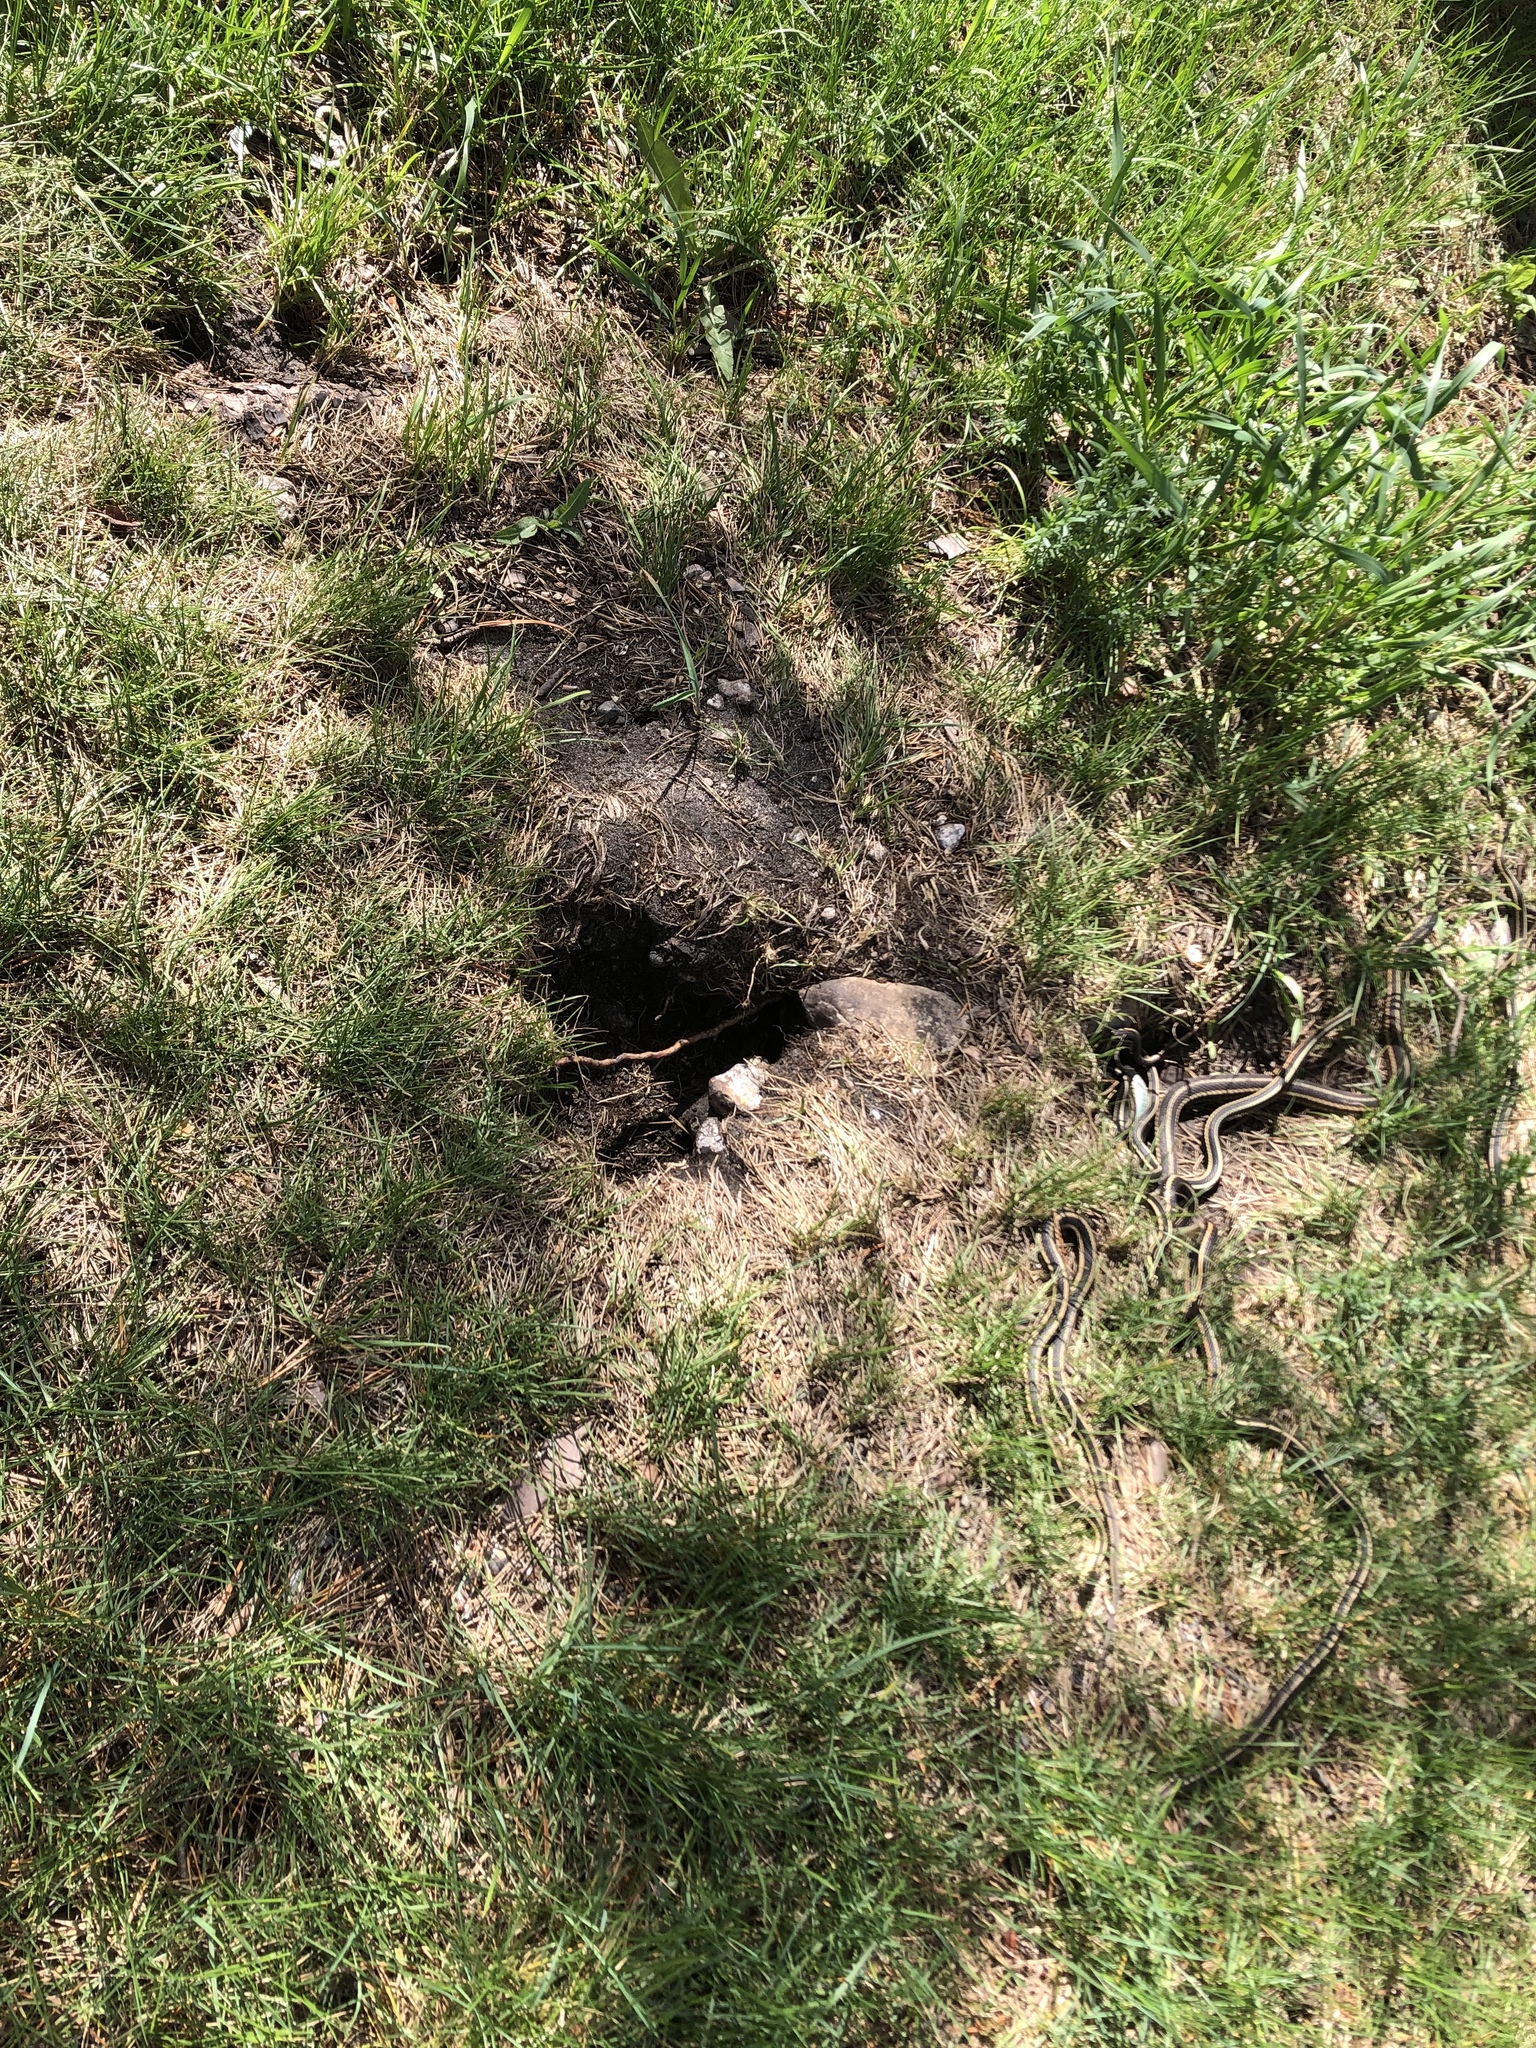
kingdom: Animalia
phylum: Chordata
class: Squamata
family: Colubridae
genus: Thamnophis
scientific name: Thamnophis sirtalis
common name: Common garter snake
